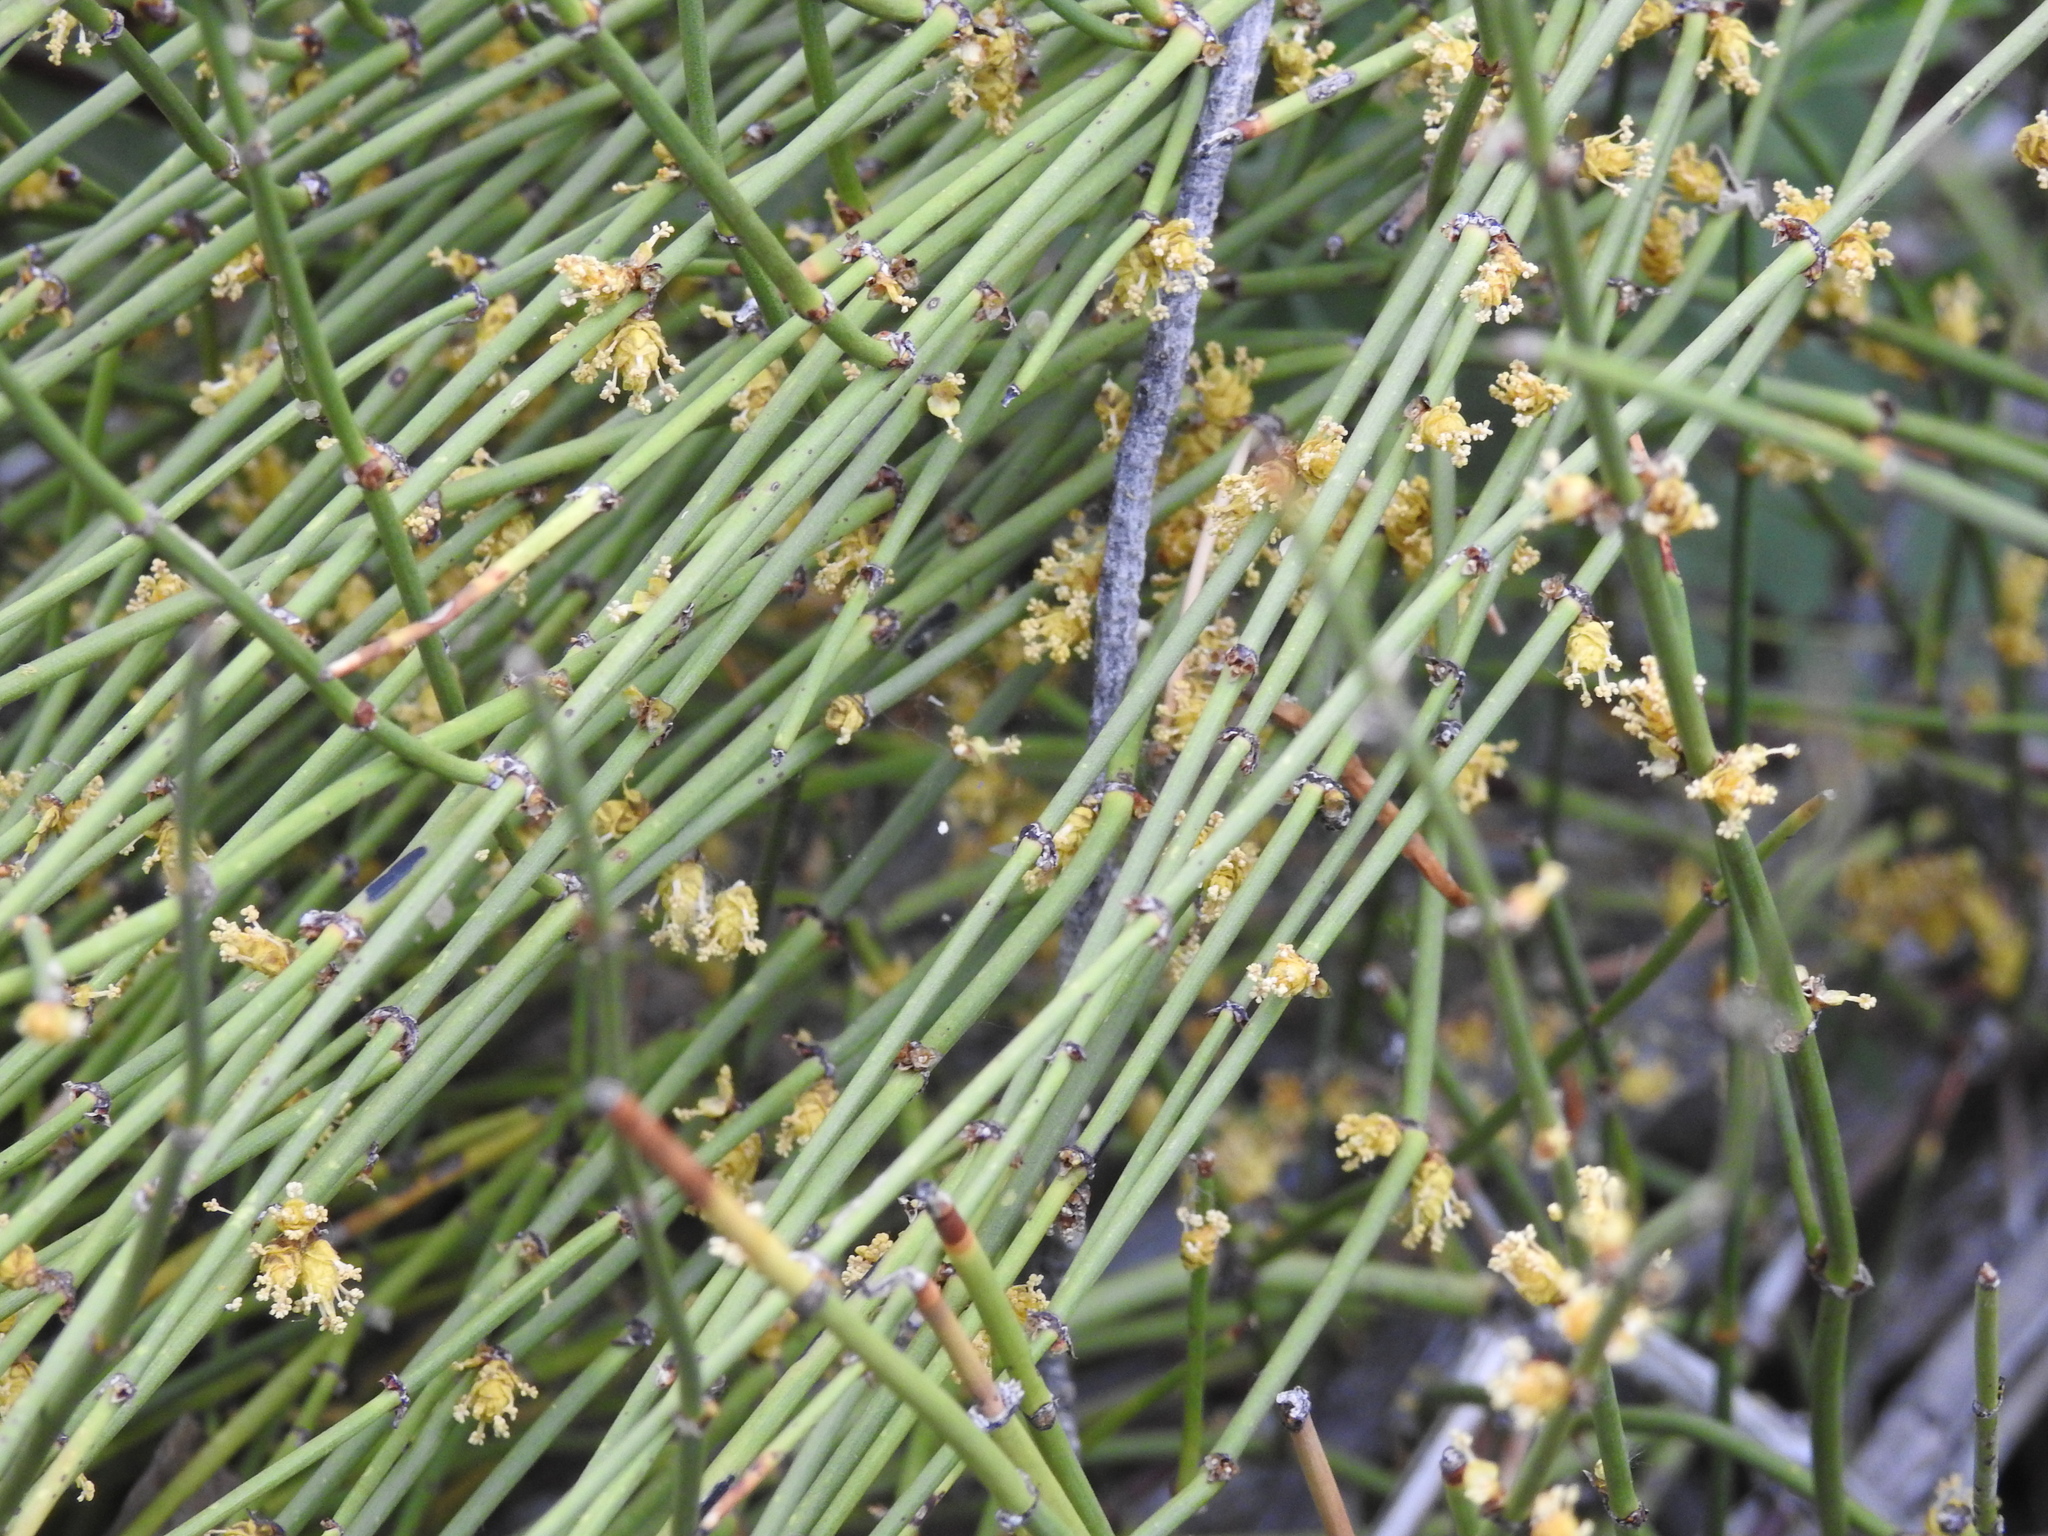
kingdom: Plantae
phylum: Tracheophyta
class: Gnetopsida
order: Ephedrales
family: Ephedraceae
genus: Ephedra
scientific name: Ephedra viridis
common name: Green ephedra
